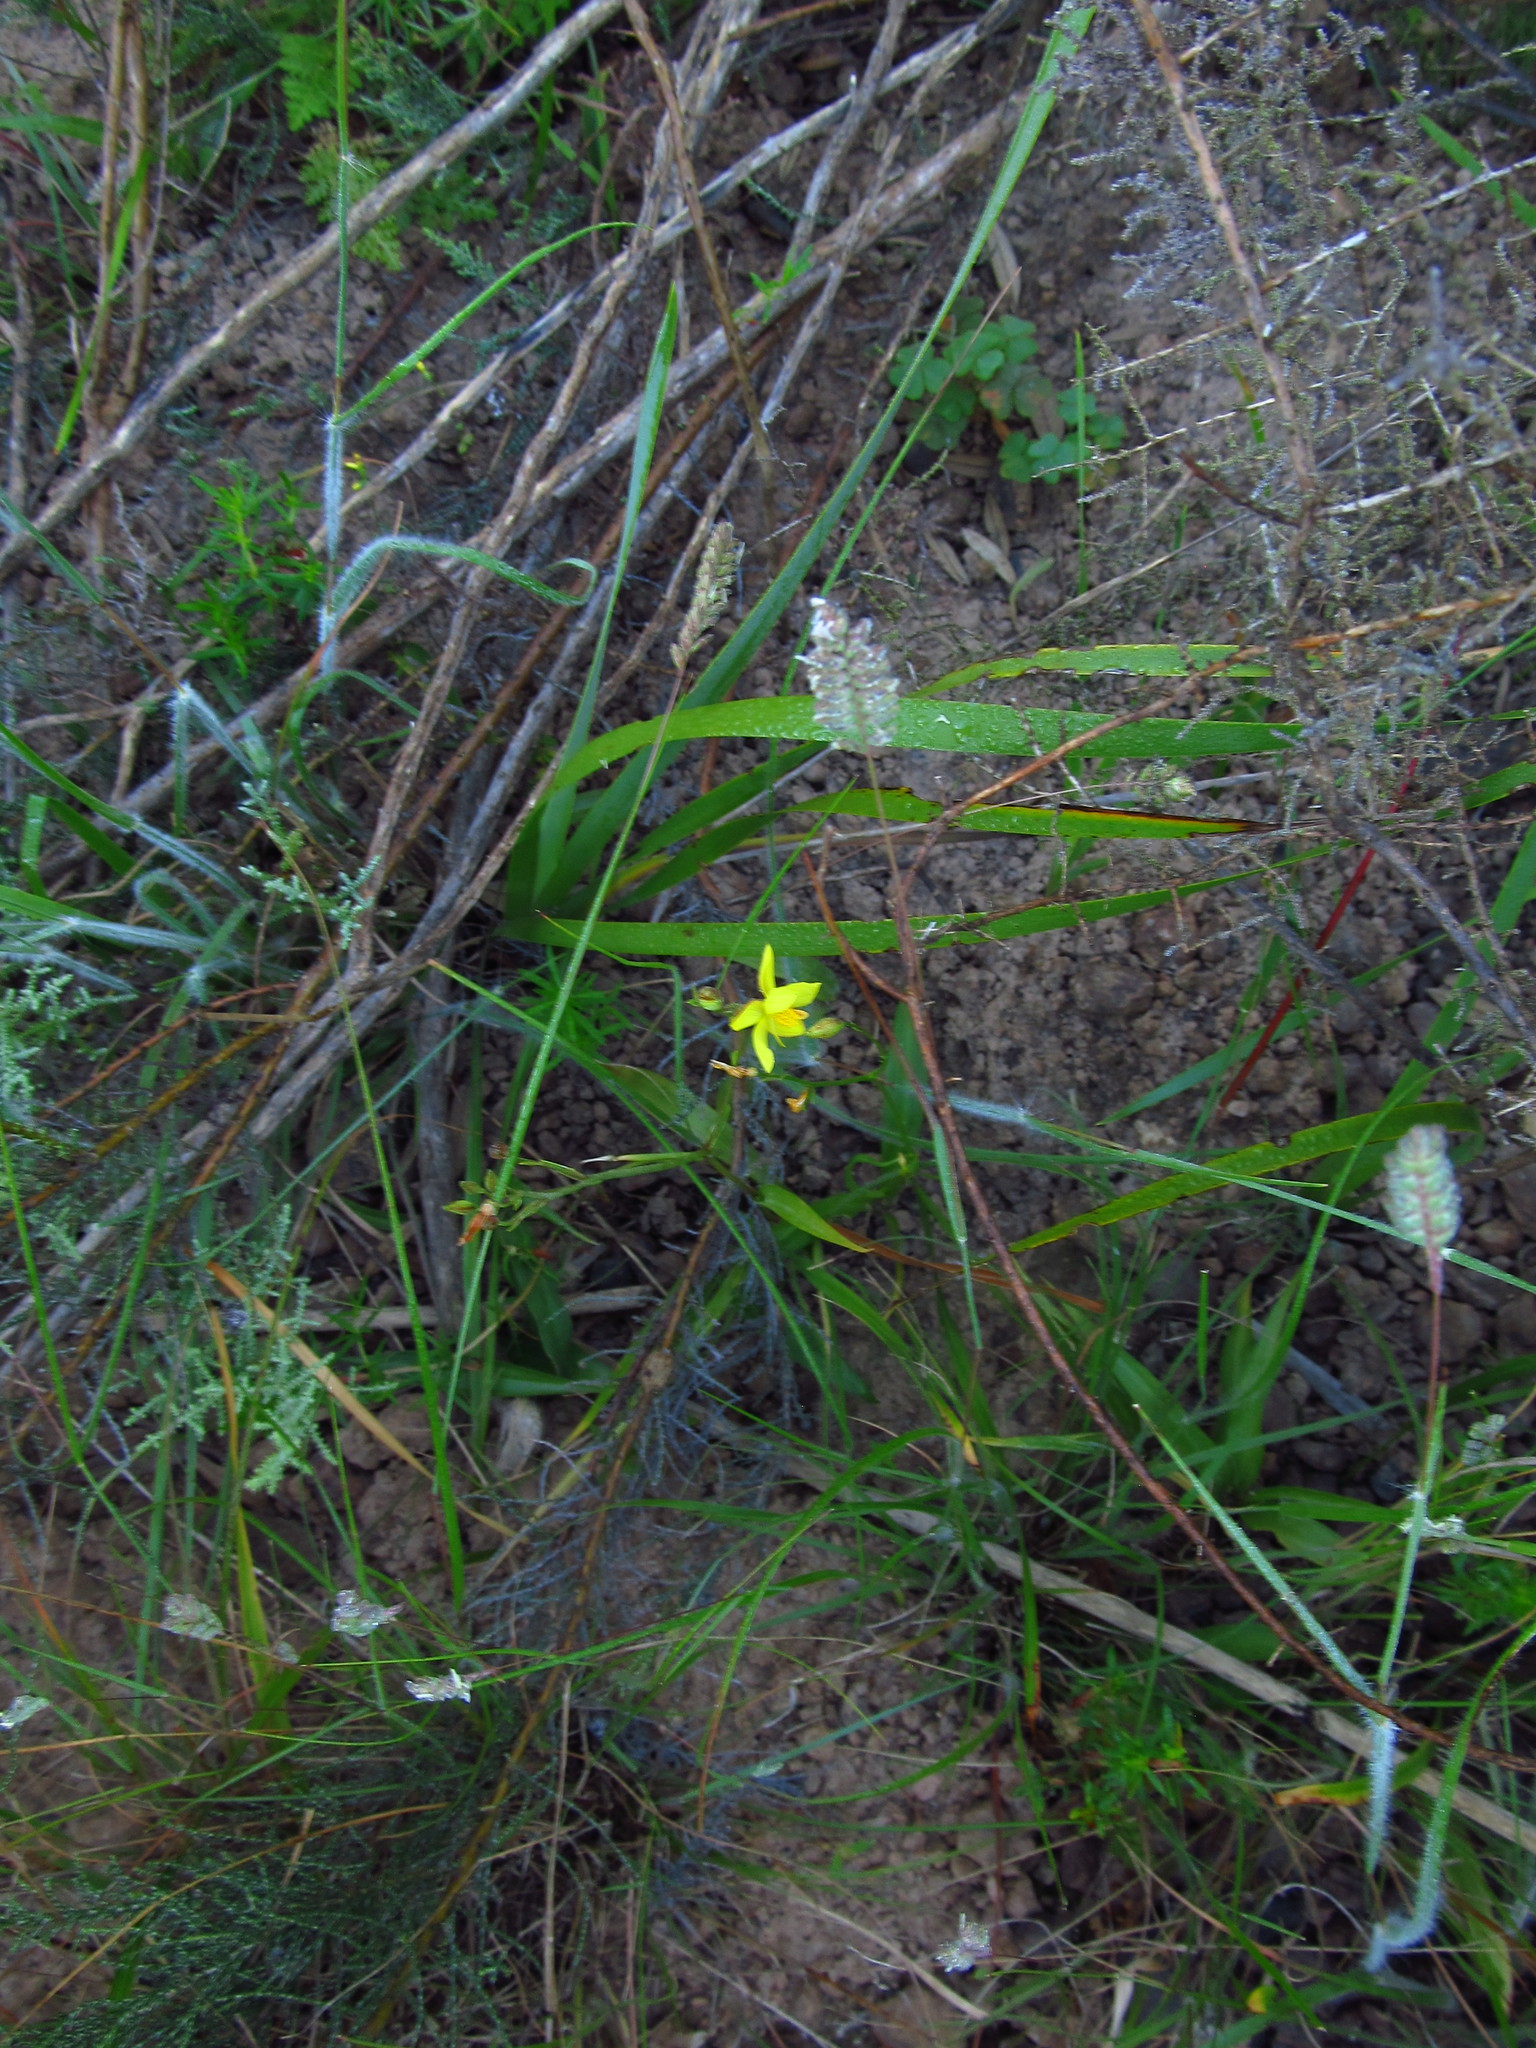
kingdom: Plantae
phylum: Tracheophyta
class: Liliopsida
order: Asparagales
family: Tecophilaeaceae
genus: Cyanella
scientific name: Cyanella lutea
